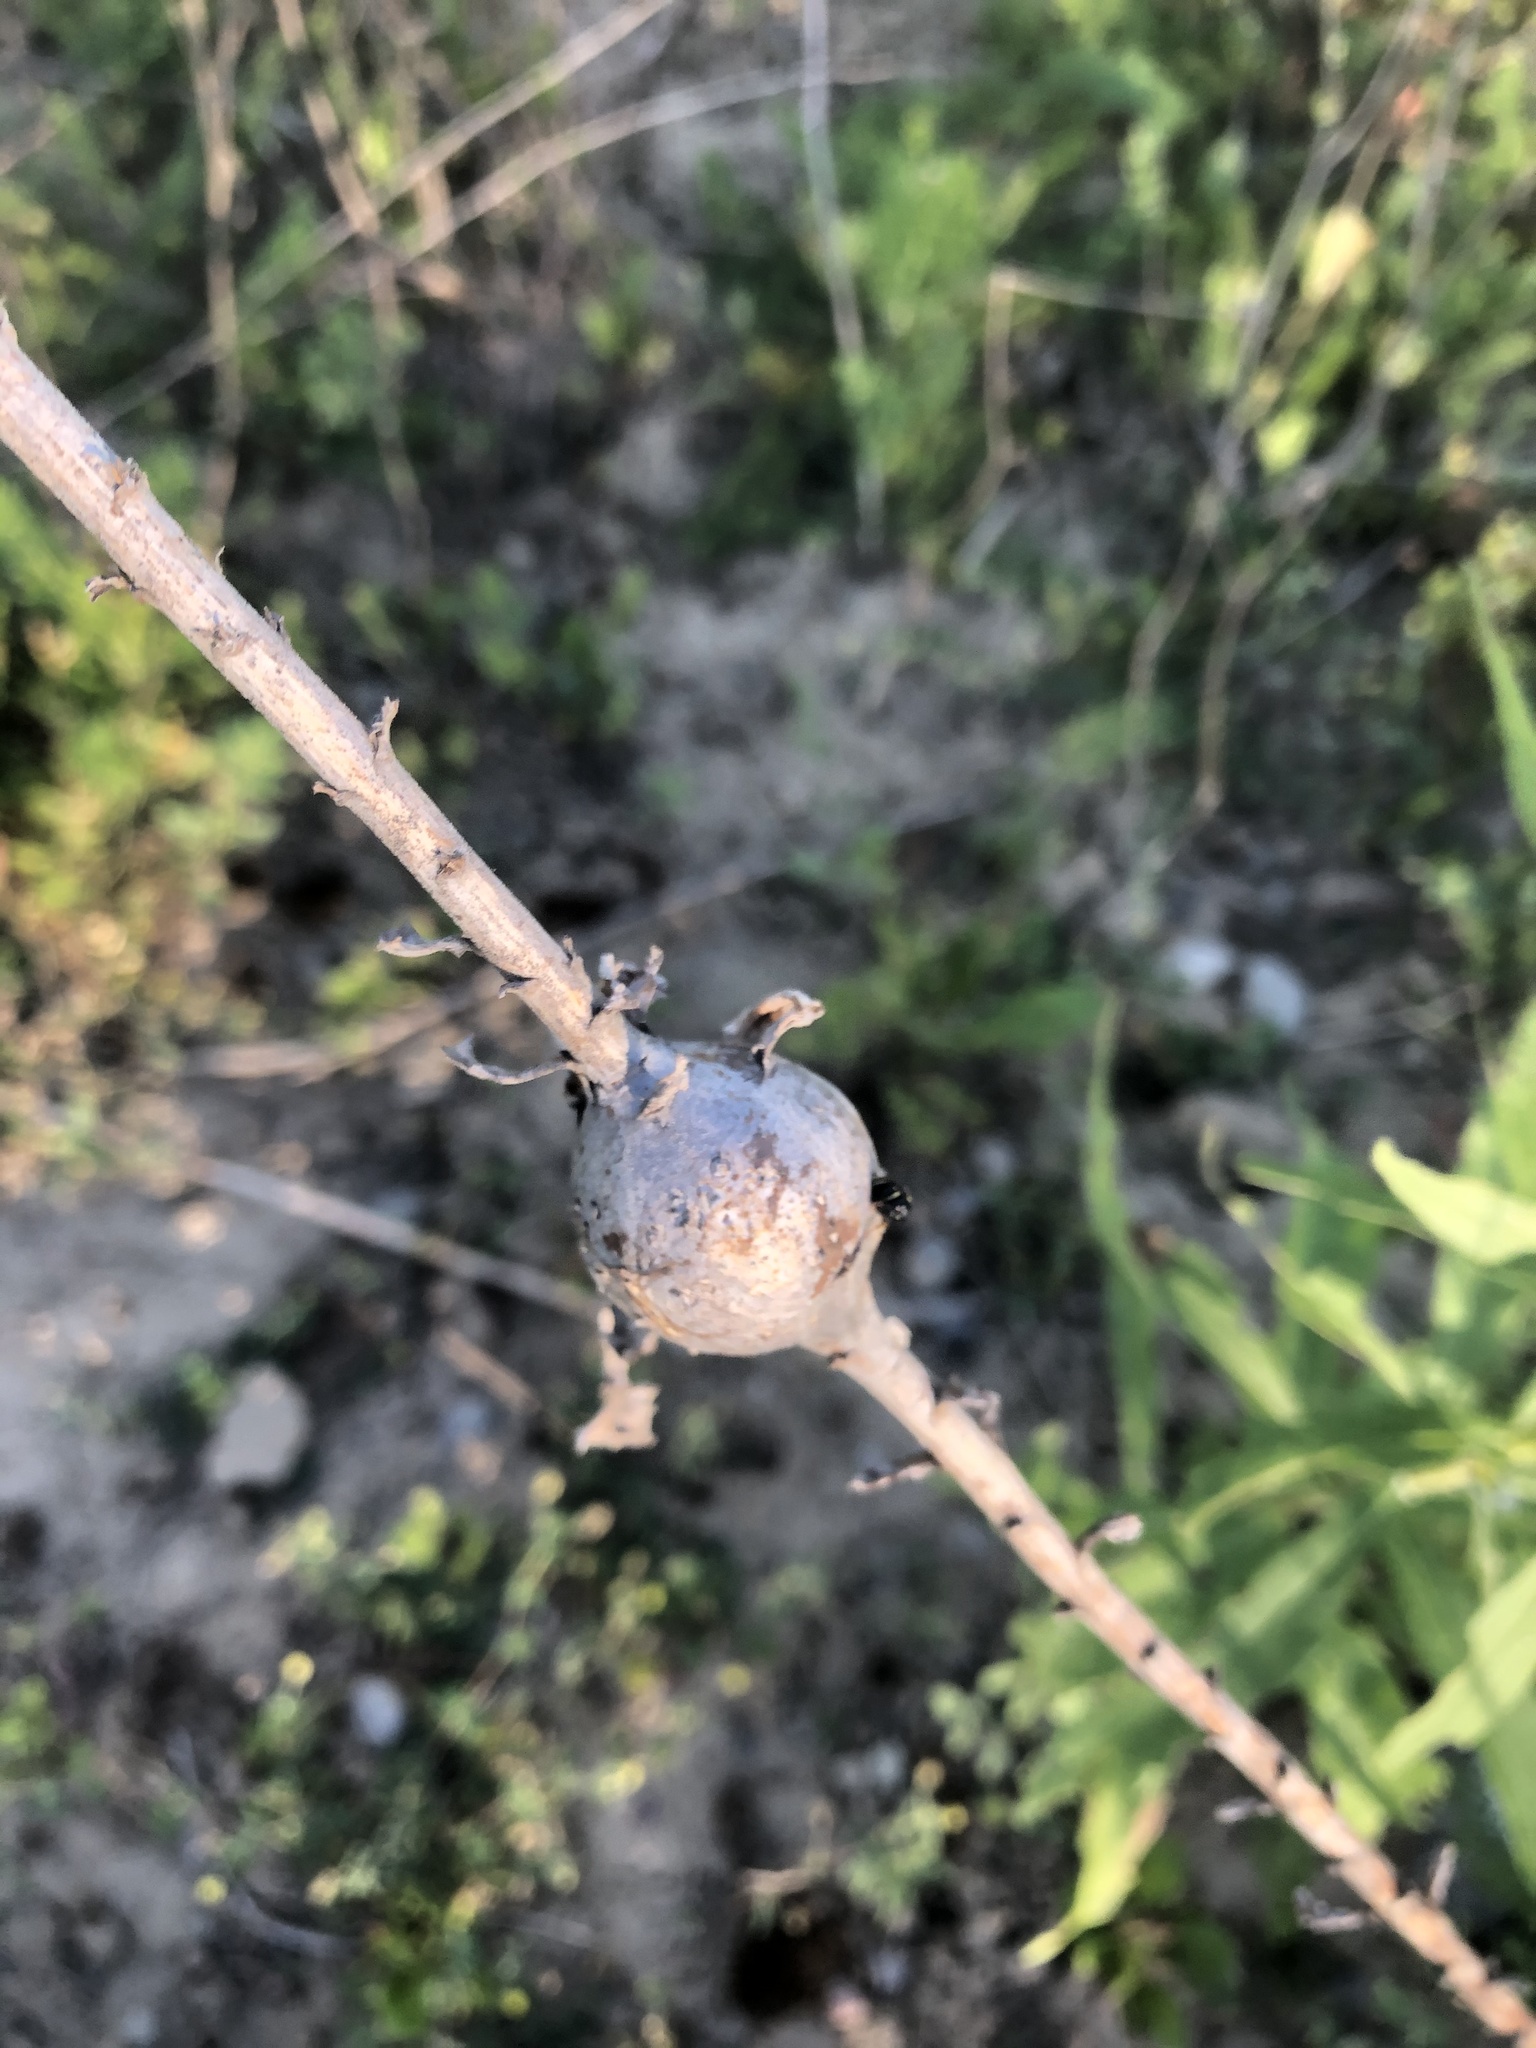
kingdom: Animalia
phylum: Arthropoda
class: Insecta
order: Diptera
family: Tephritidae
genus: Eurosta
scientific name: Eurosta solidaginis
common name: Goldenrod gall fly
